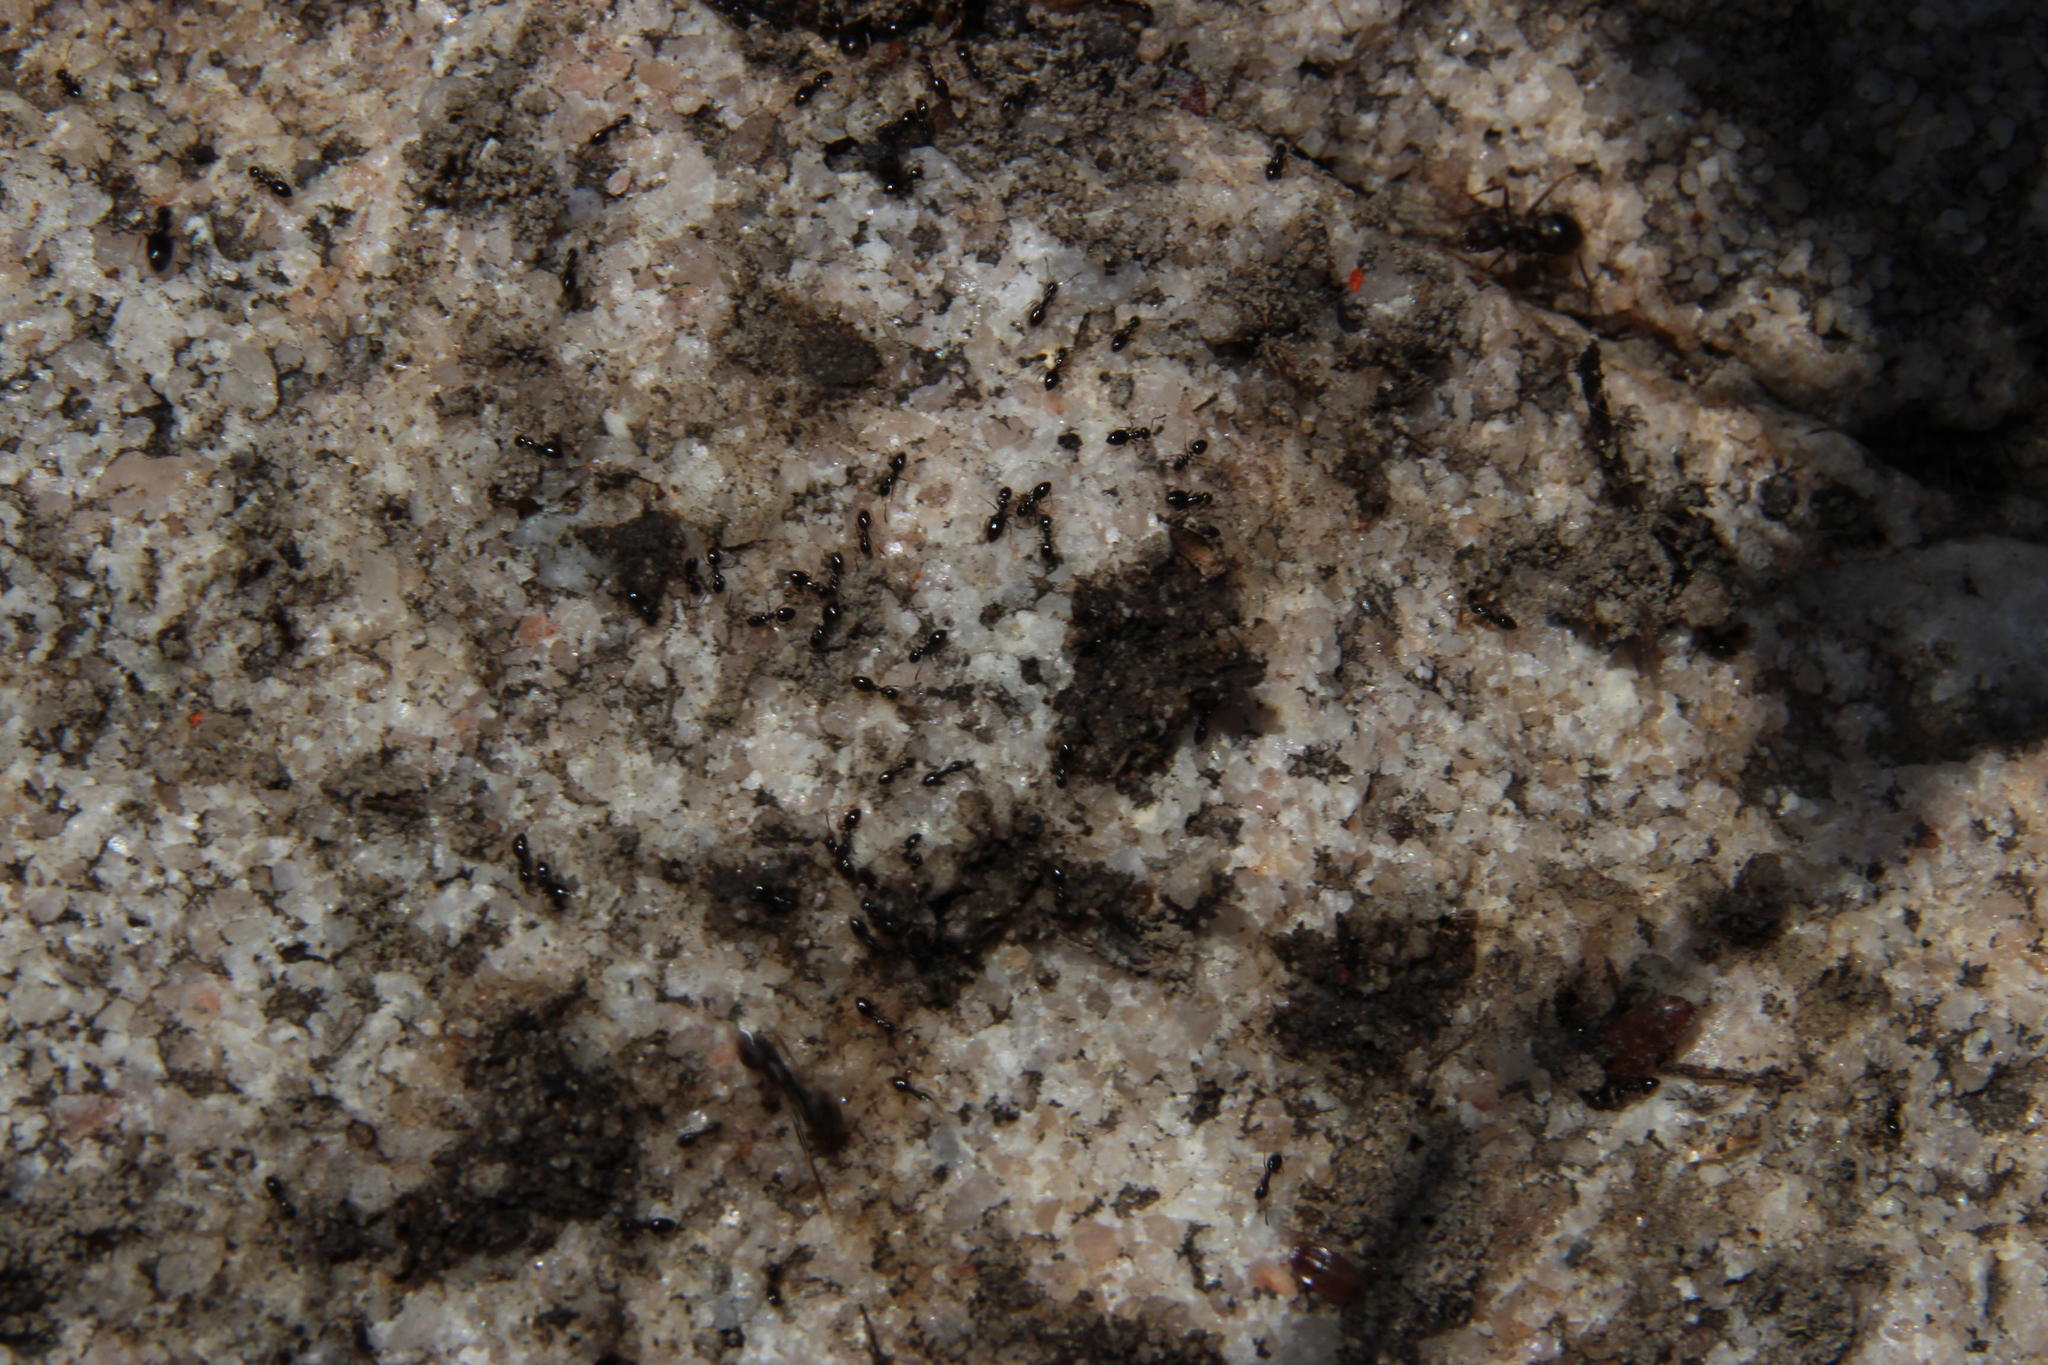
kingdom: Animalia
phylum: Arthropoda
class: Insecta
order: Hymenoptera
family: Formicidae
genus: Lepisiota
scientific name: Lepisiota capensis
